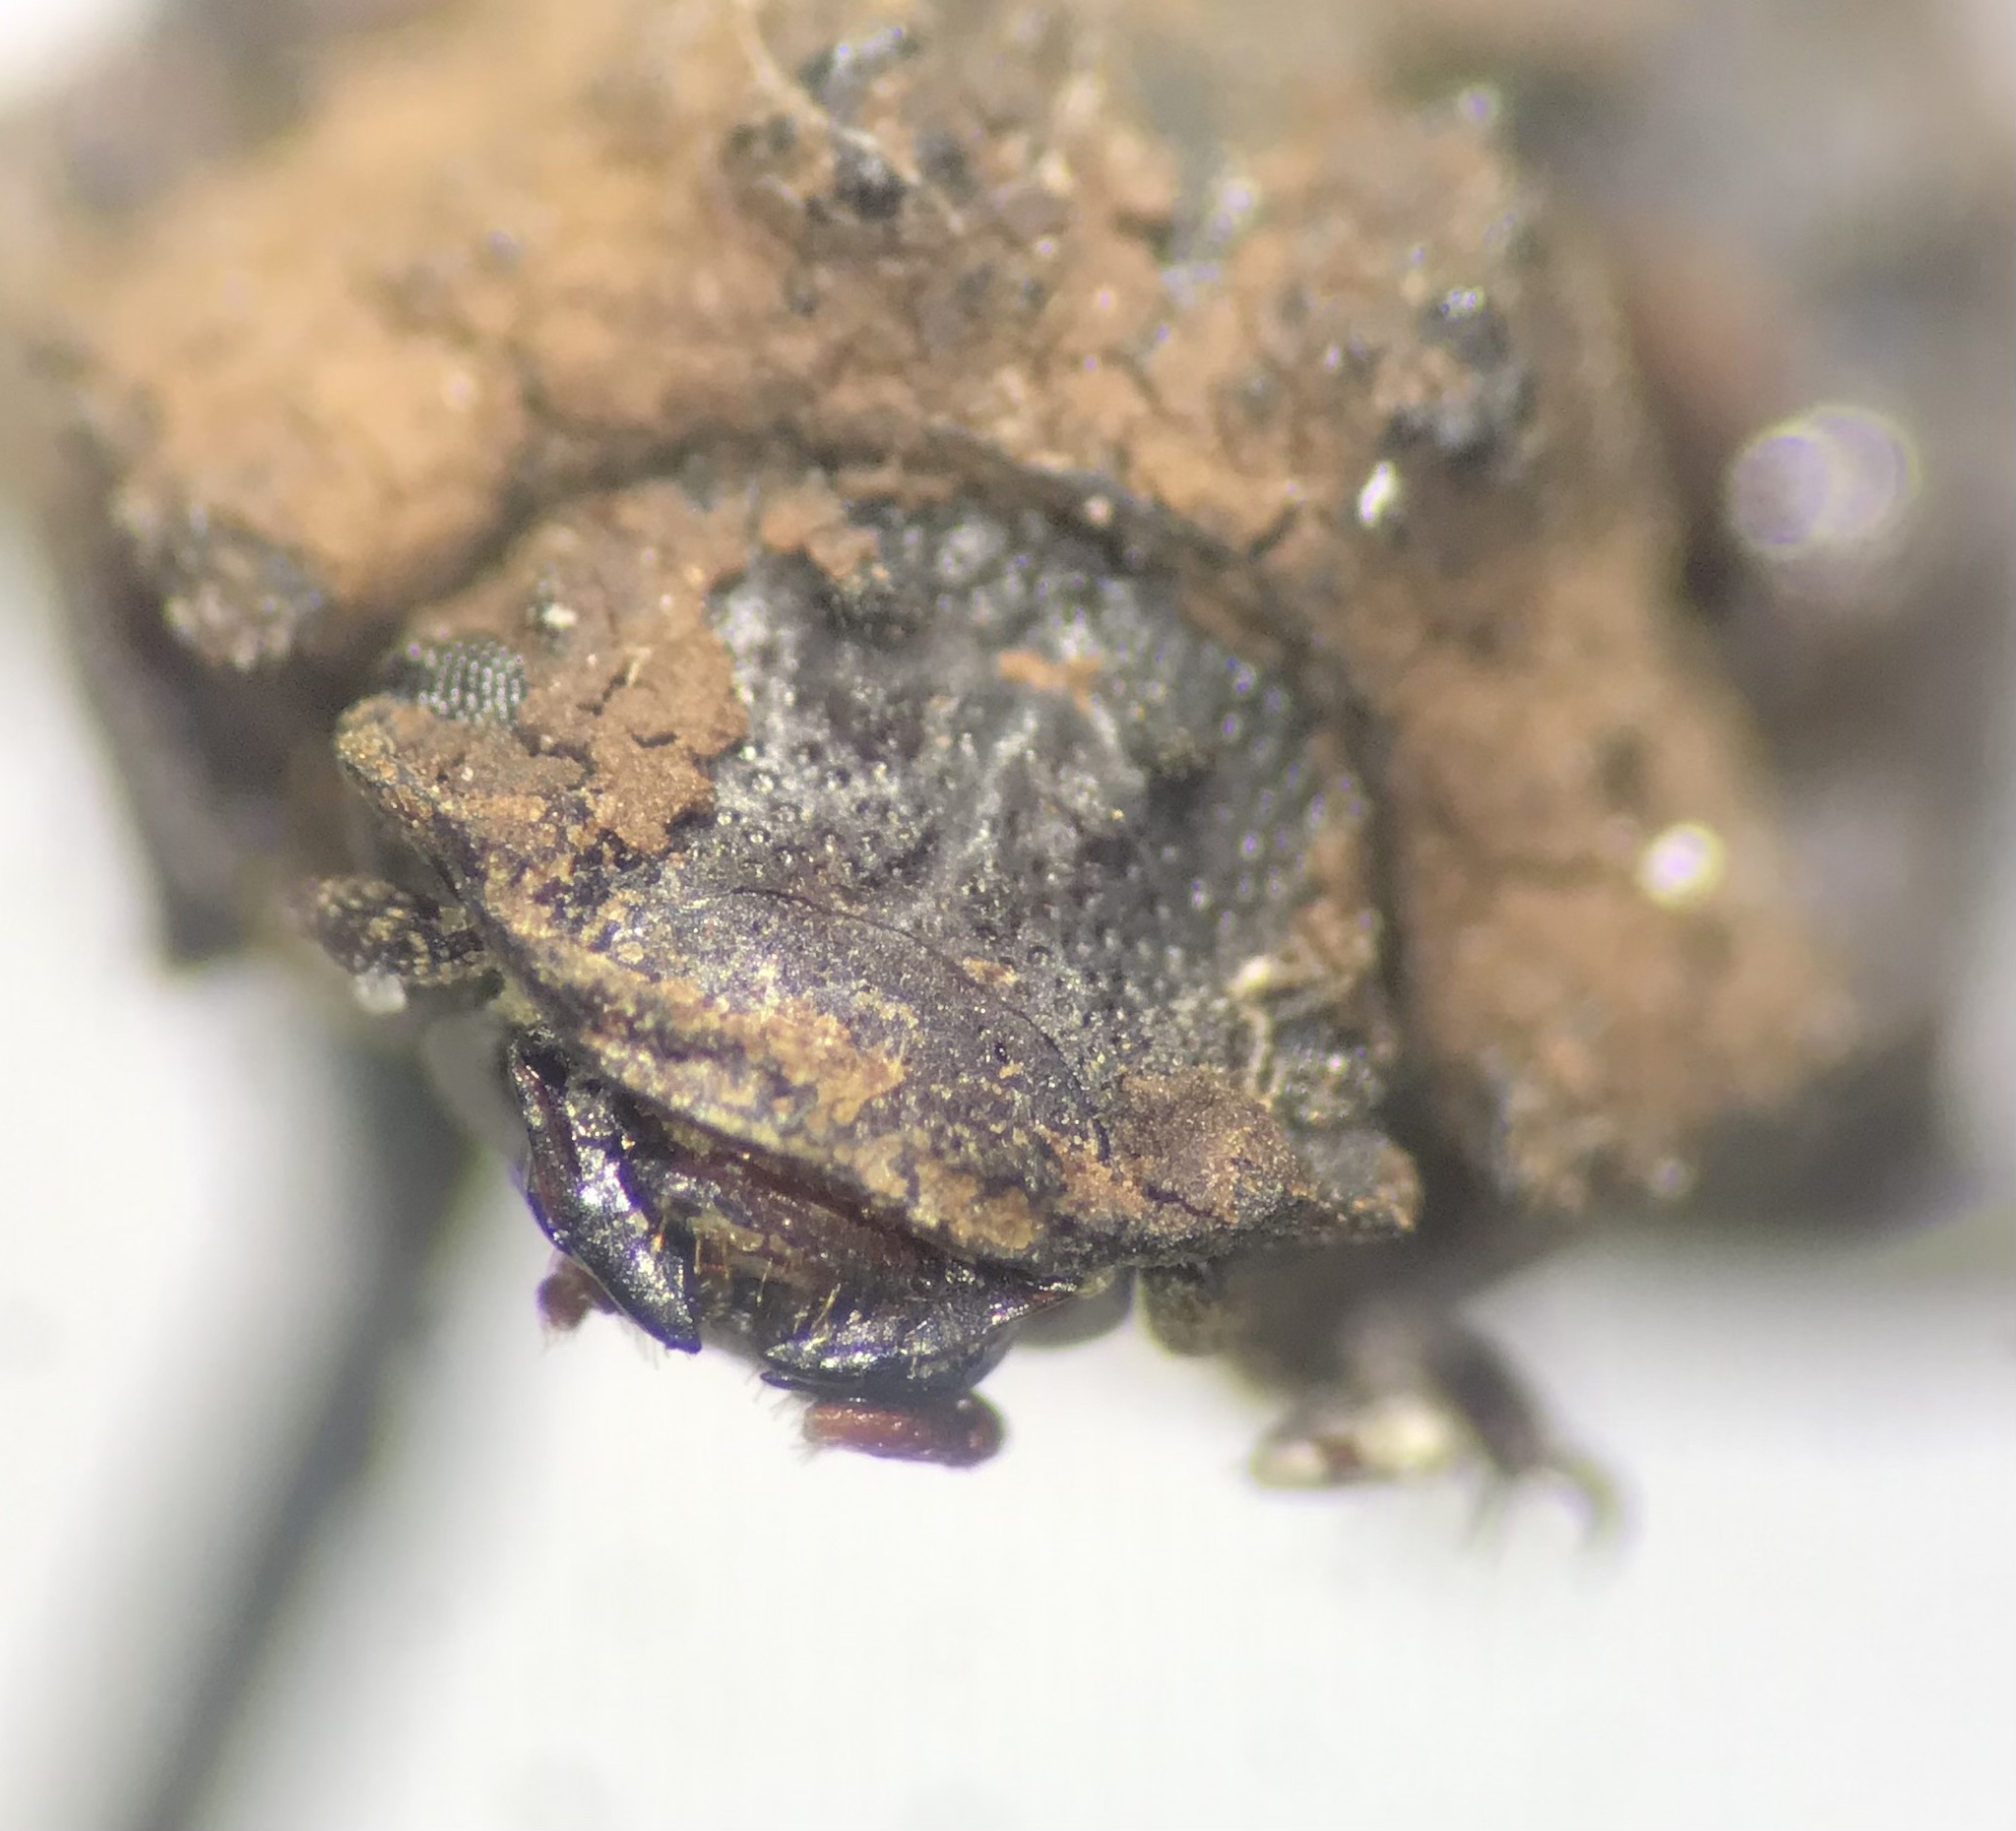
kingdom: Animalia
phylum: Arthropoda
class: Insecta
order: Coleoptera
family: Tenebrionidae
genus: Gnatocerus
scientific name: Gnatocerus cornutus
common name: Broad-horned flour beetle
